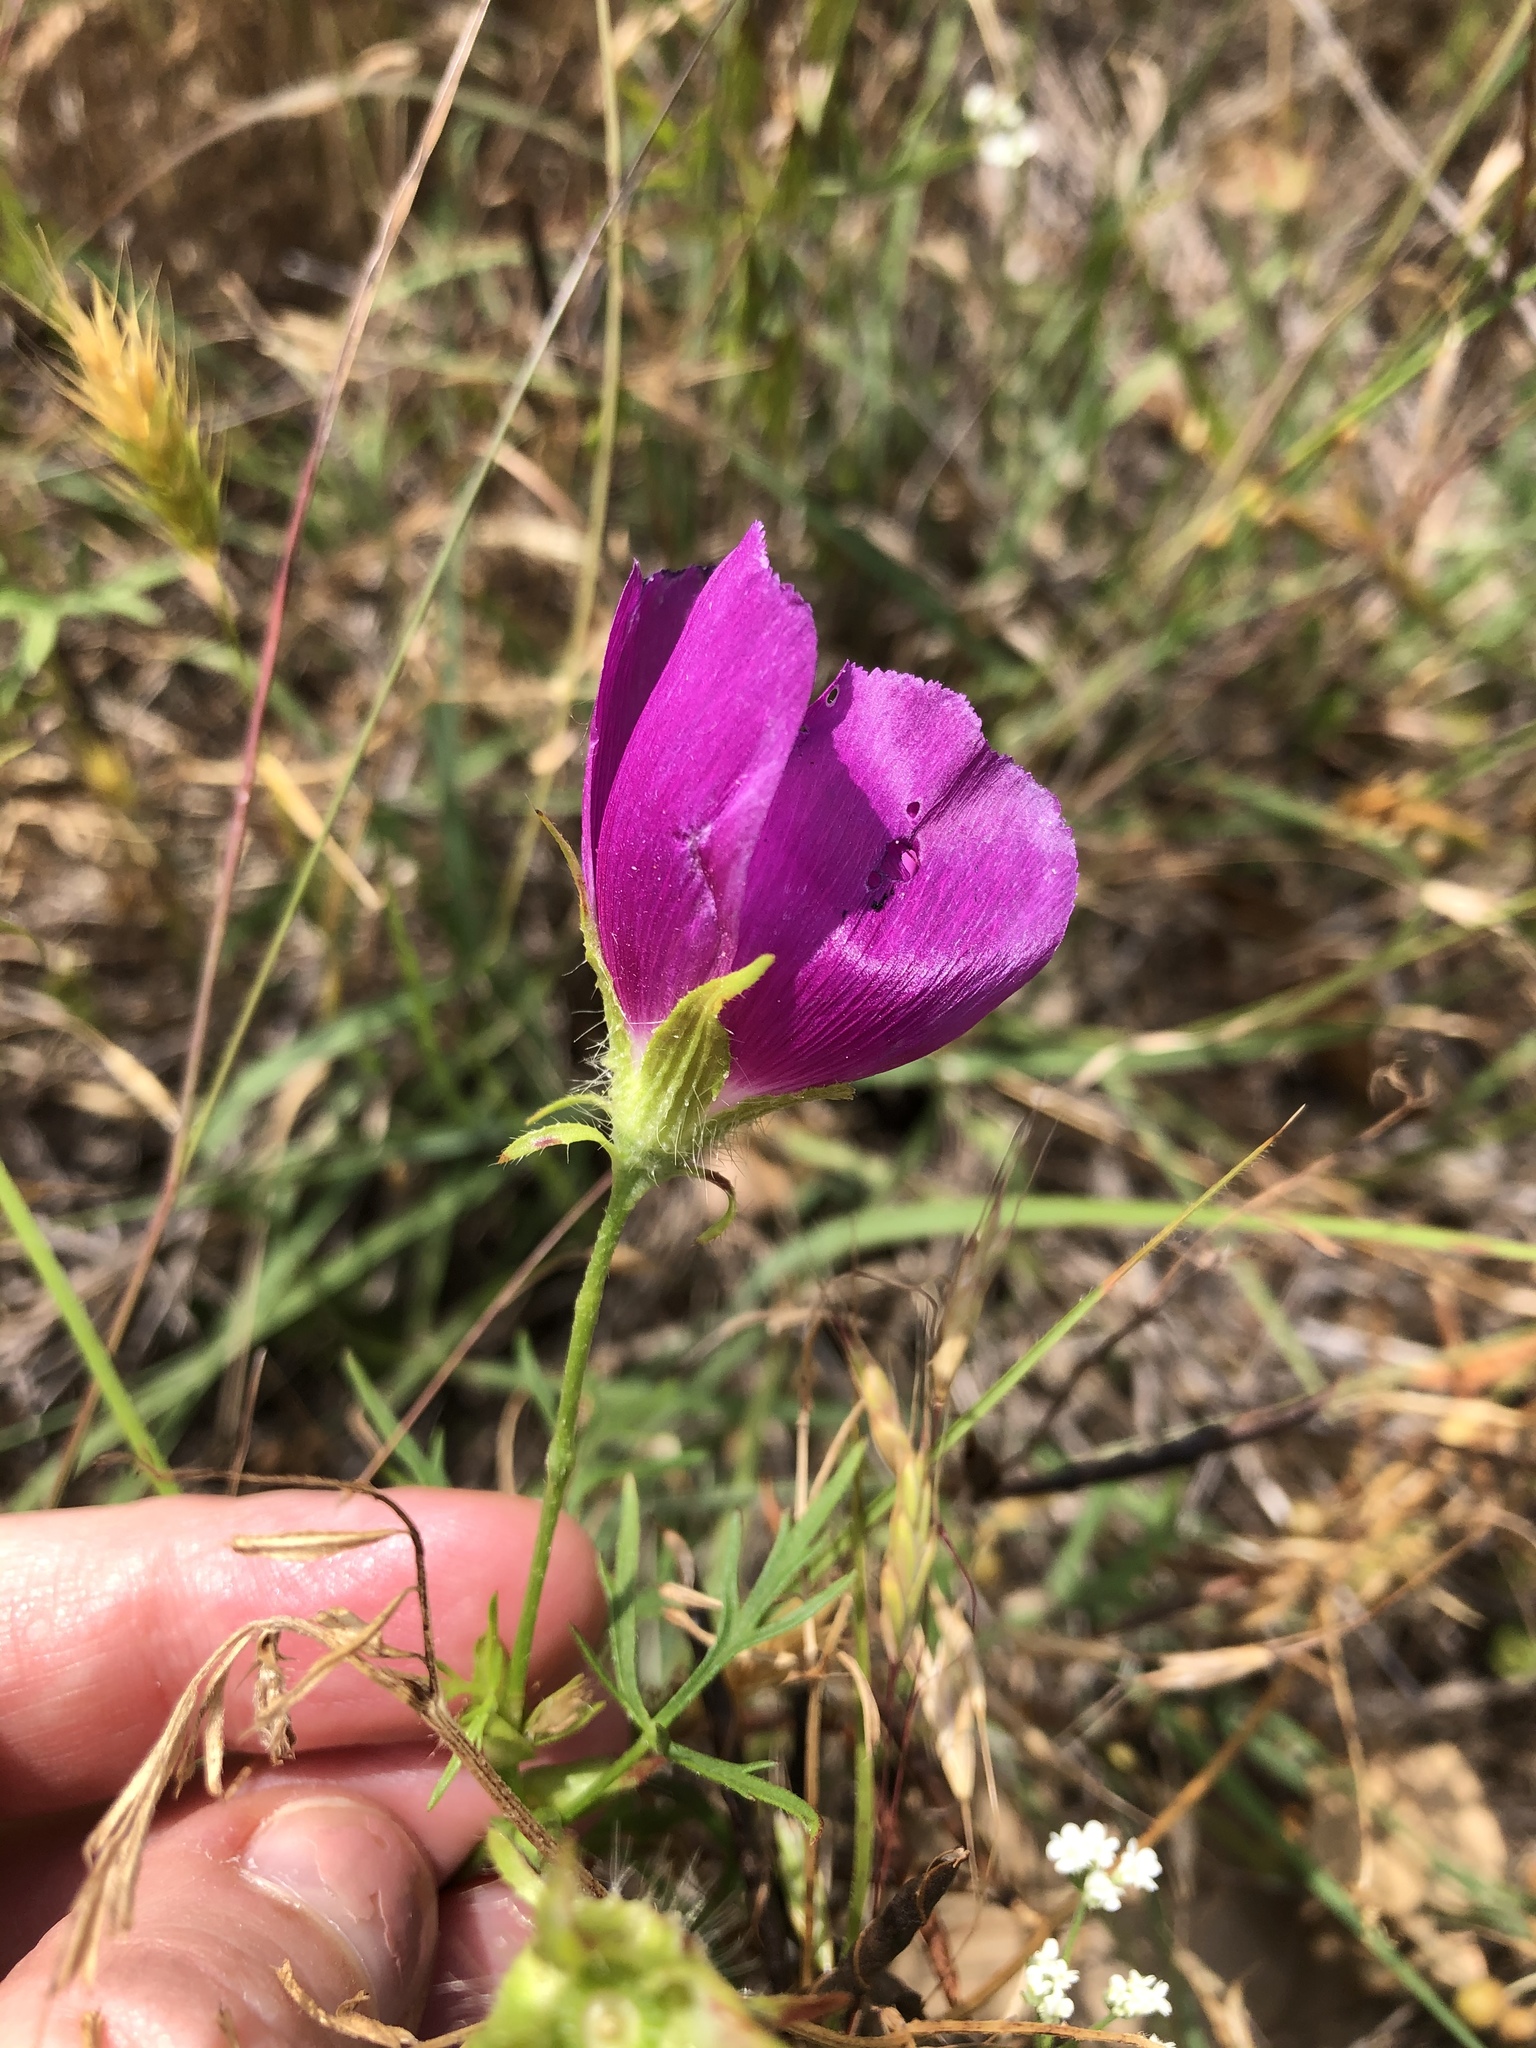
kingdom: Plantae
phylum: Tracheophyta
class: Magnoliopsida
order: Malvales
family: Malvaceae
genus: Callirhoe
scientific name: Callirhoe involucrata
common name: Purple poppy-mallow
